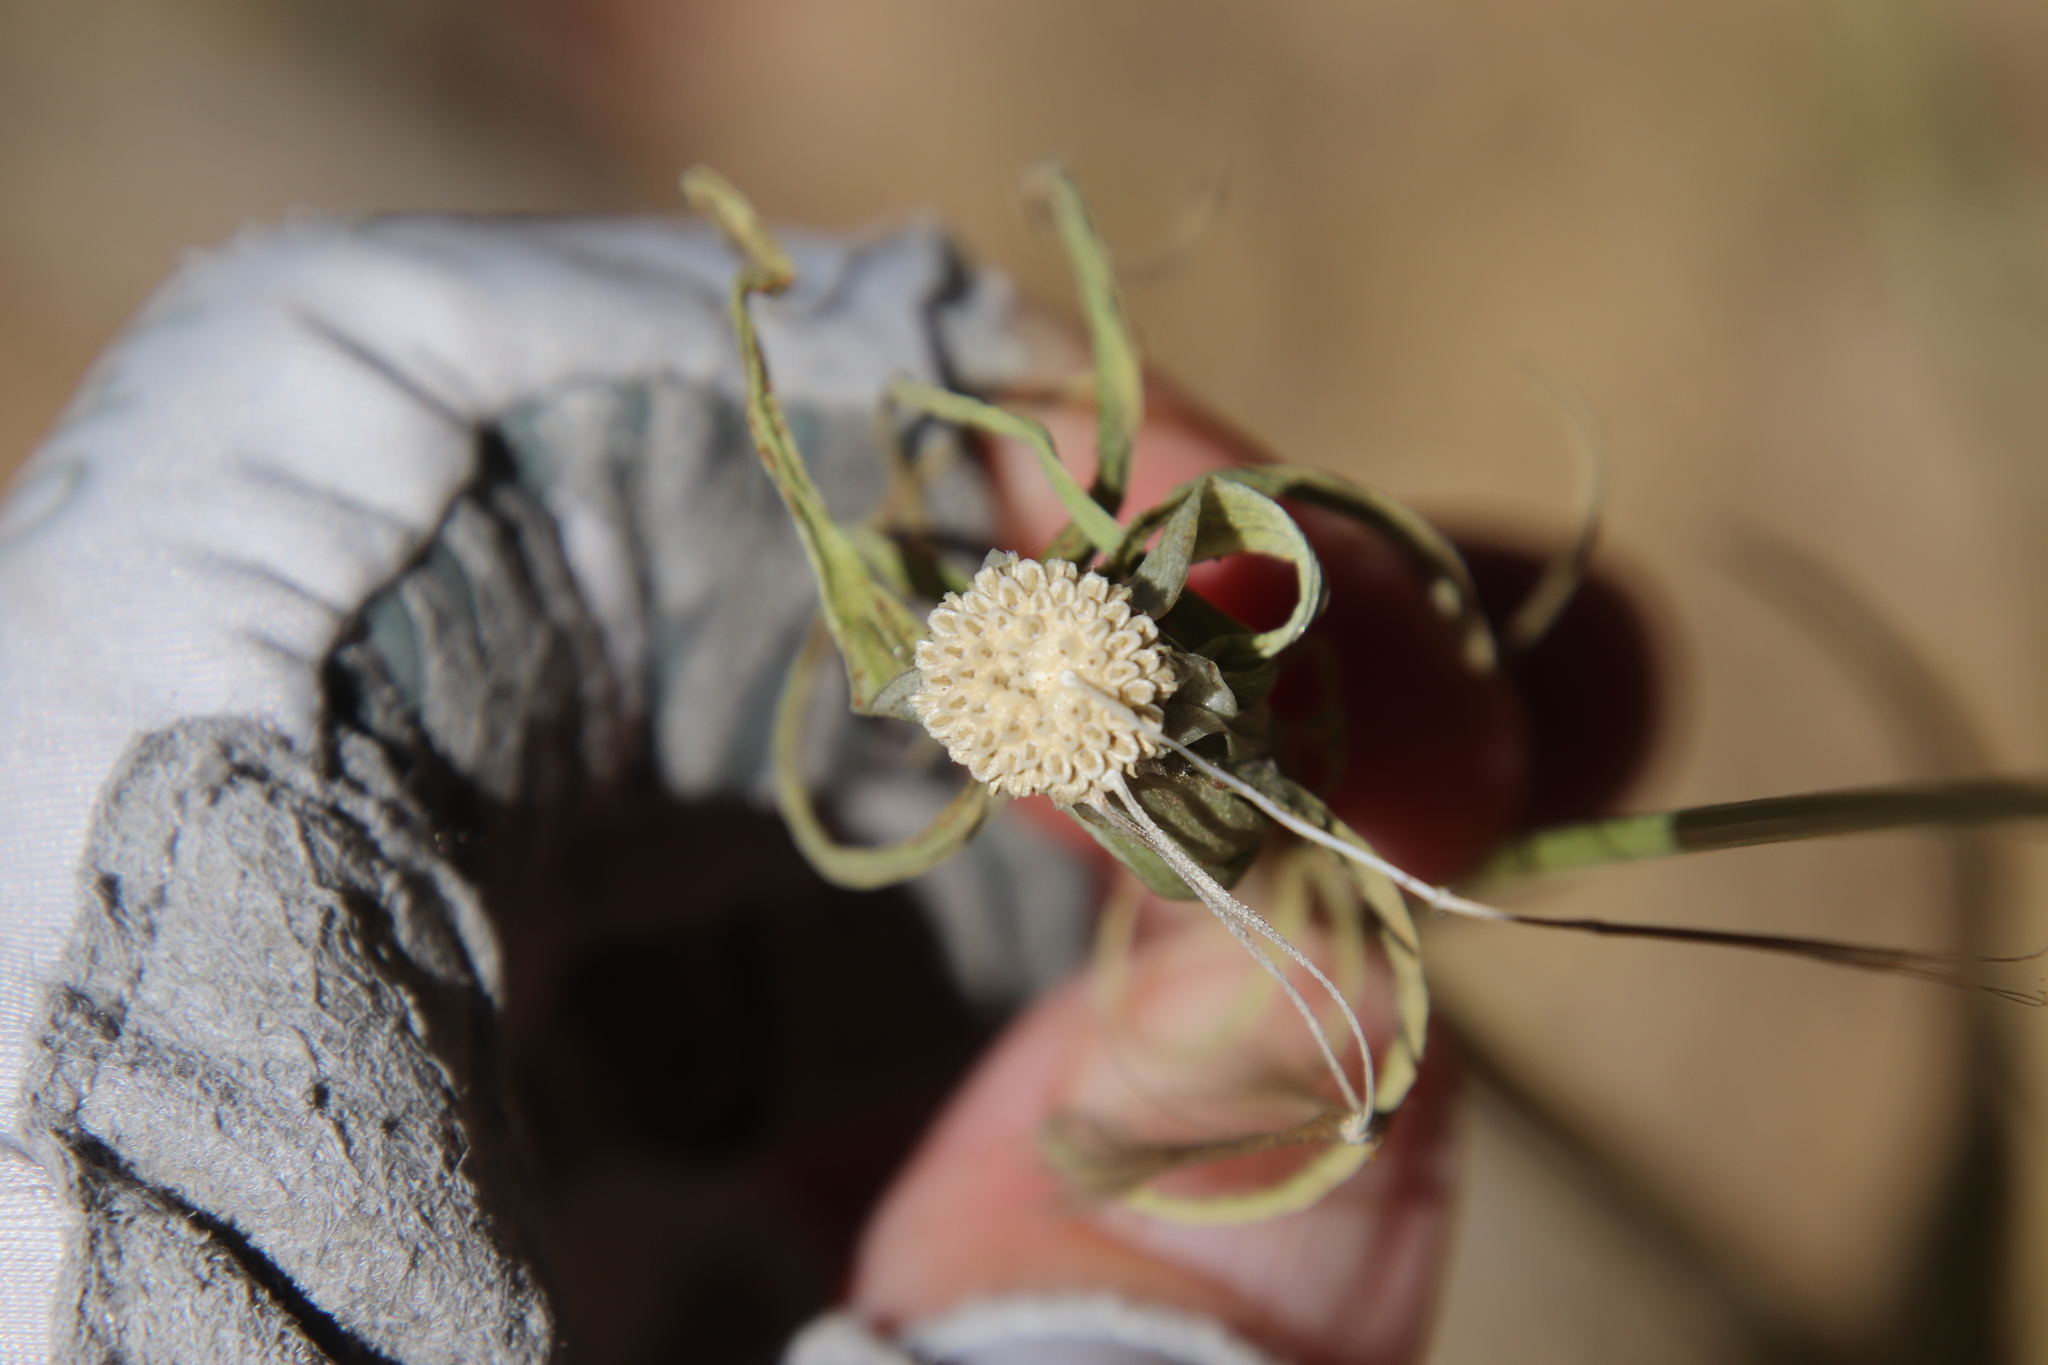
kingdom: Plantae
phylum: Tracheophyta
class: Magnoliopsida
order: Asterales
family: Asteraceae
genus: Tragopogon
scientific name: Tragopogon dubius
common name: Yellow salsify
